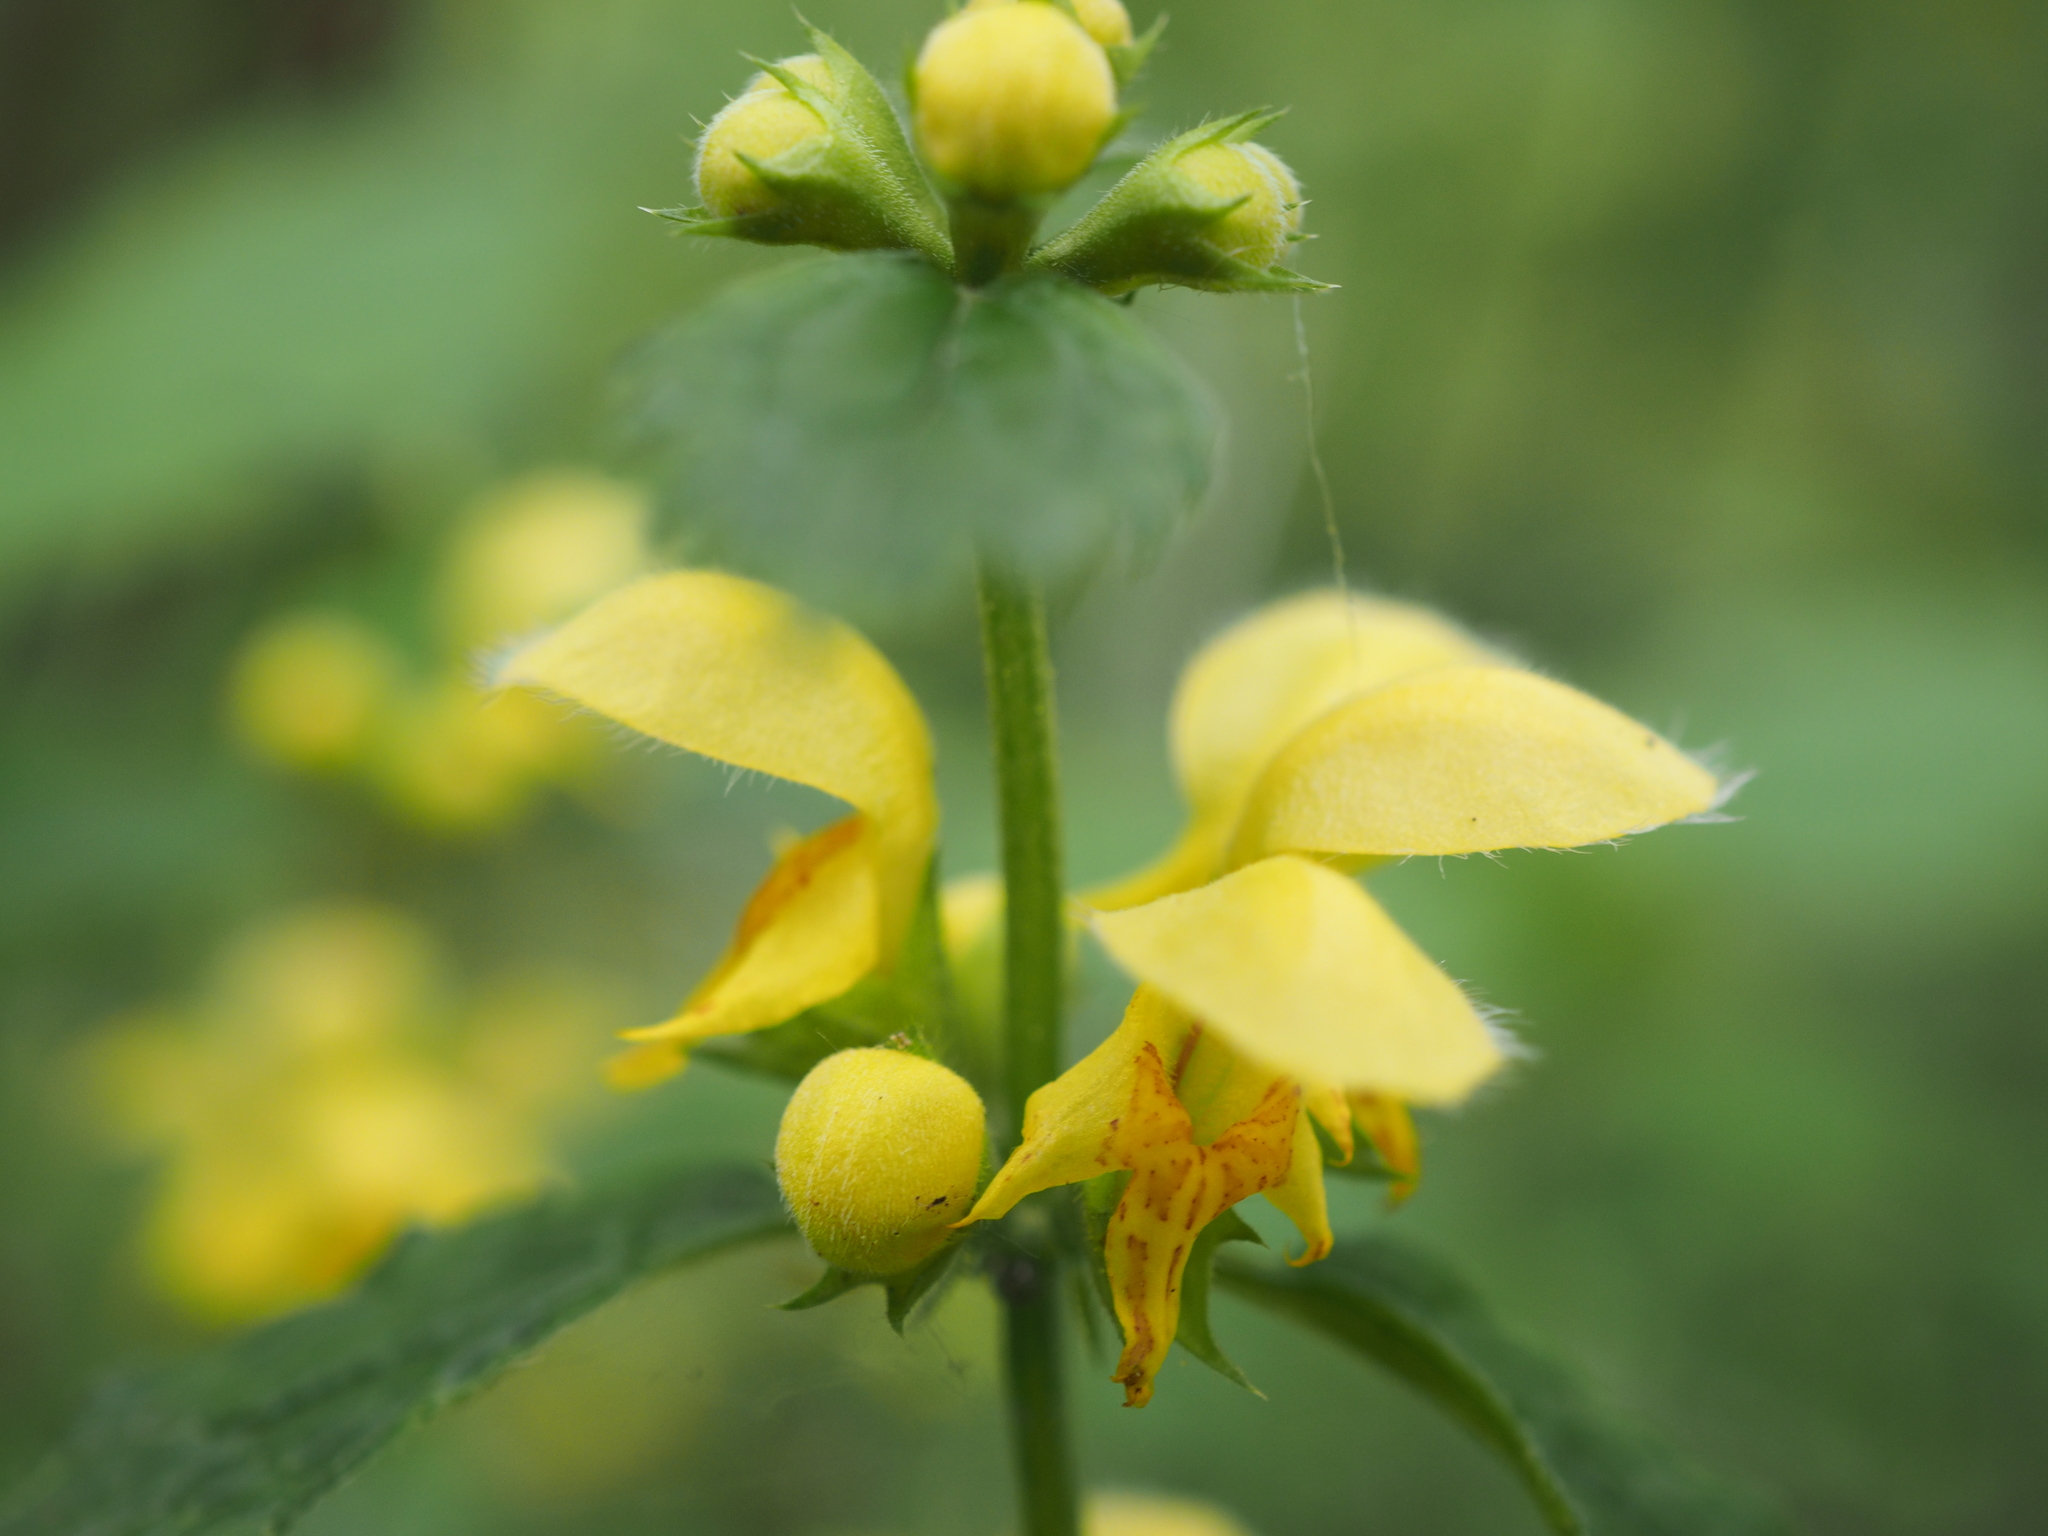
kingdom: Plantae
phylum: Tracheophyta
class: Magnoliopsida
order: Lamiales
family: Lamiaceae
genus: Lamium
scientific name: Lamium galeobdolon
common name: Yellow archangel
